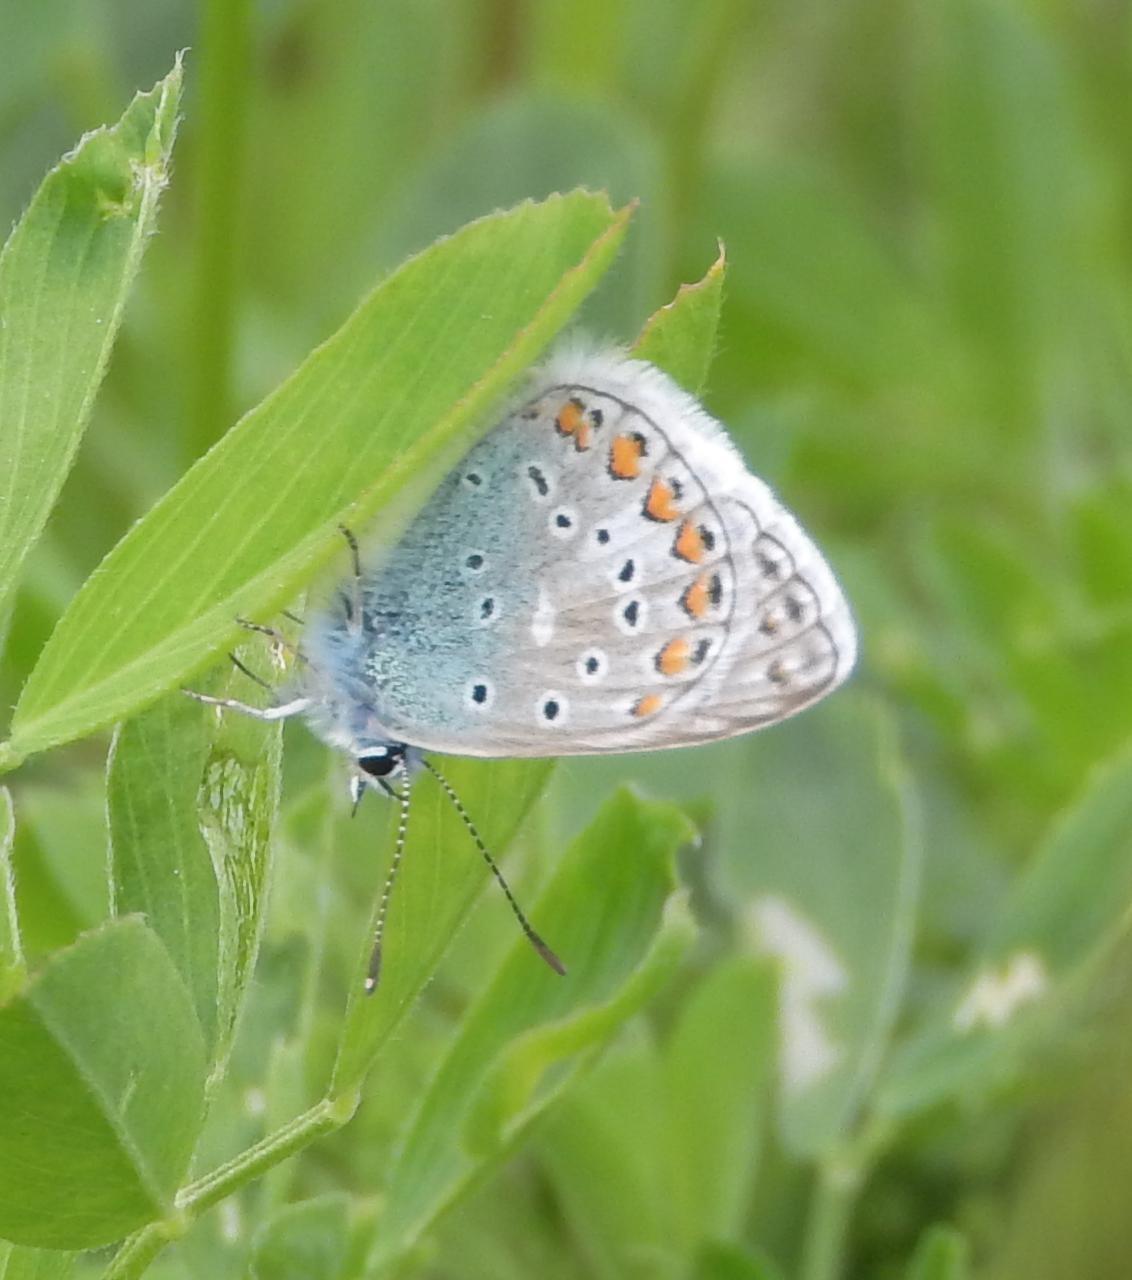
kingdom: Animalia
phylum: Arthropoda
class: Insecta
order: Lepidoptera
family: Lycaenidae
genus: Polyommatus
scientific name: Polyommatus icarus
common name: Common blue
